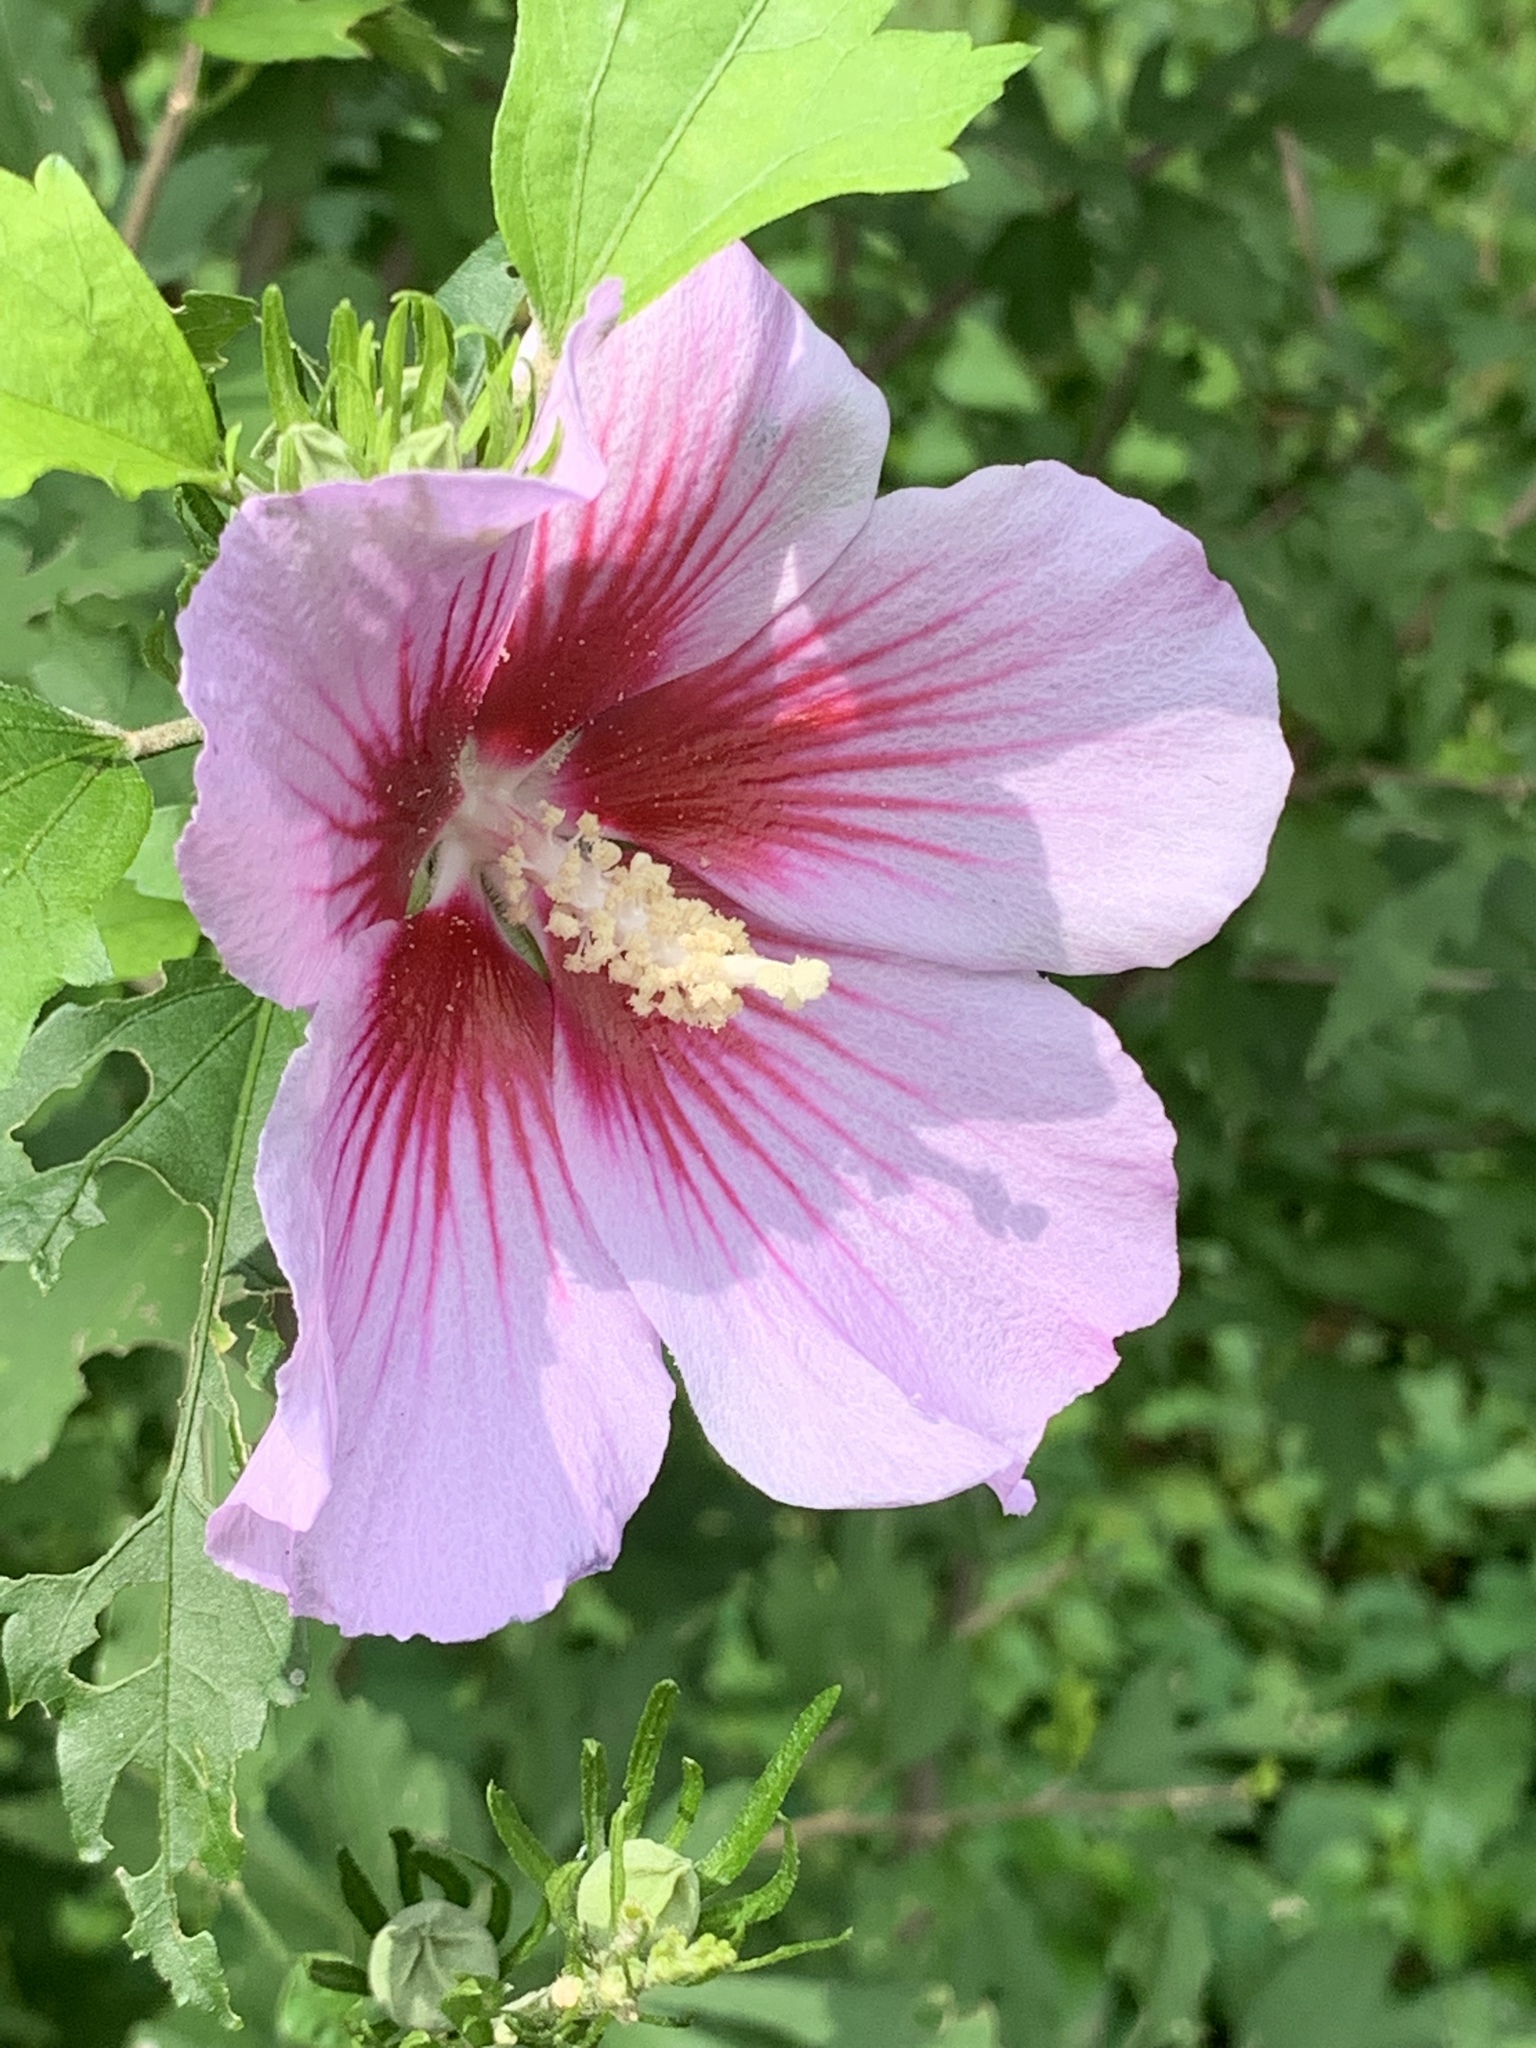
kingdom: Plantae
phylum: Tracheophyta
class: Magnoliopsida
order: Malvales
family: Malvaceae
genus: Hibiscus
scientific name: Hibiscus syriacus
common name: Syrian ketmia
